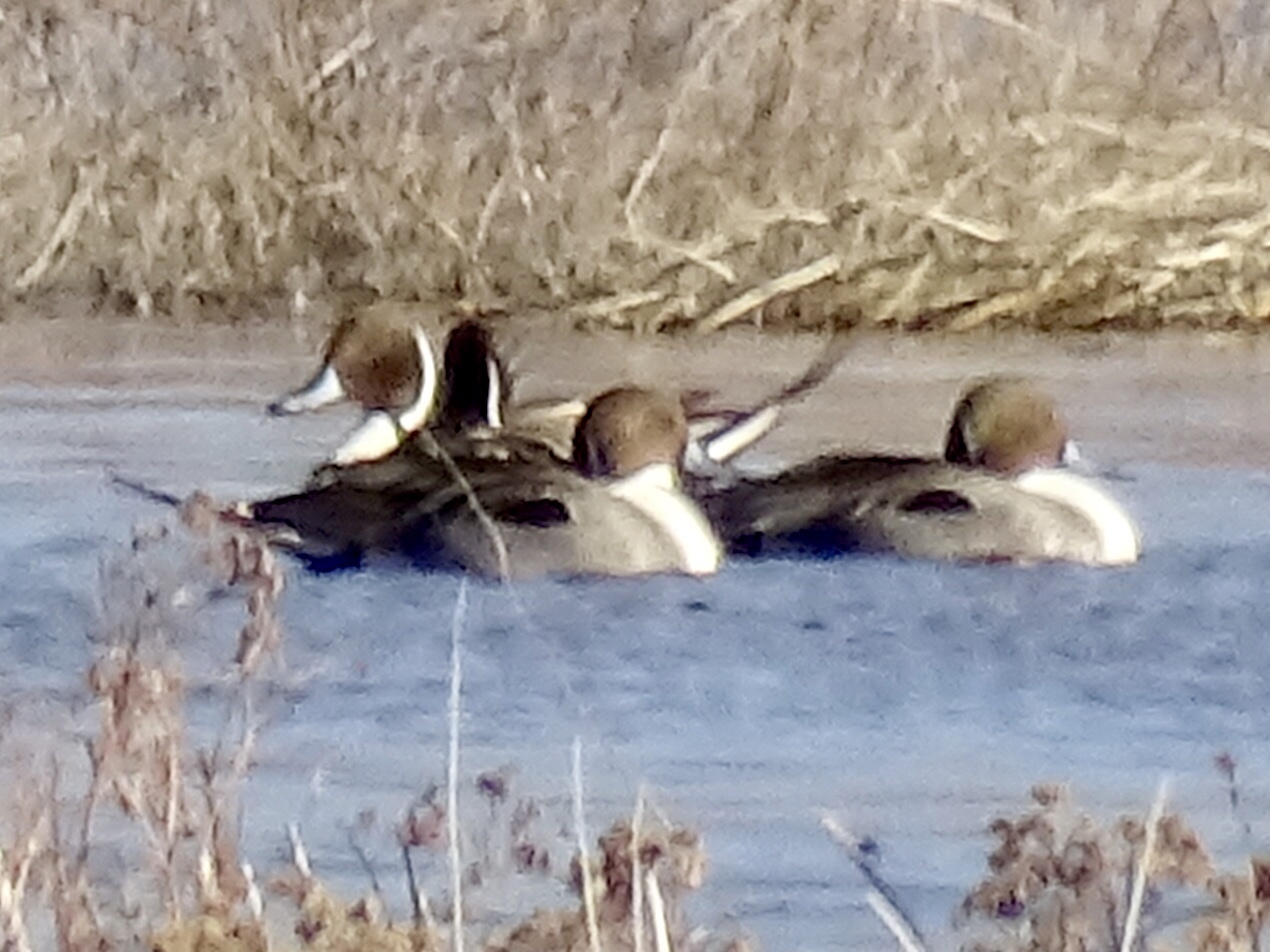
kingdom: Animalia
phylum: Chordata
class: Aves
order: Anseriformes
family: Anatidae
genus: Anas
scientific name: Anas acuta
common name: Northern pintail
